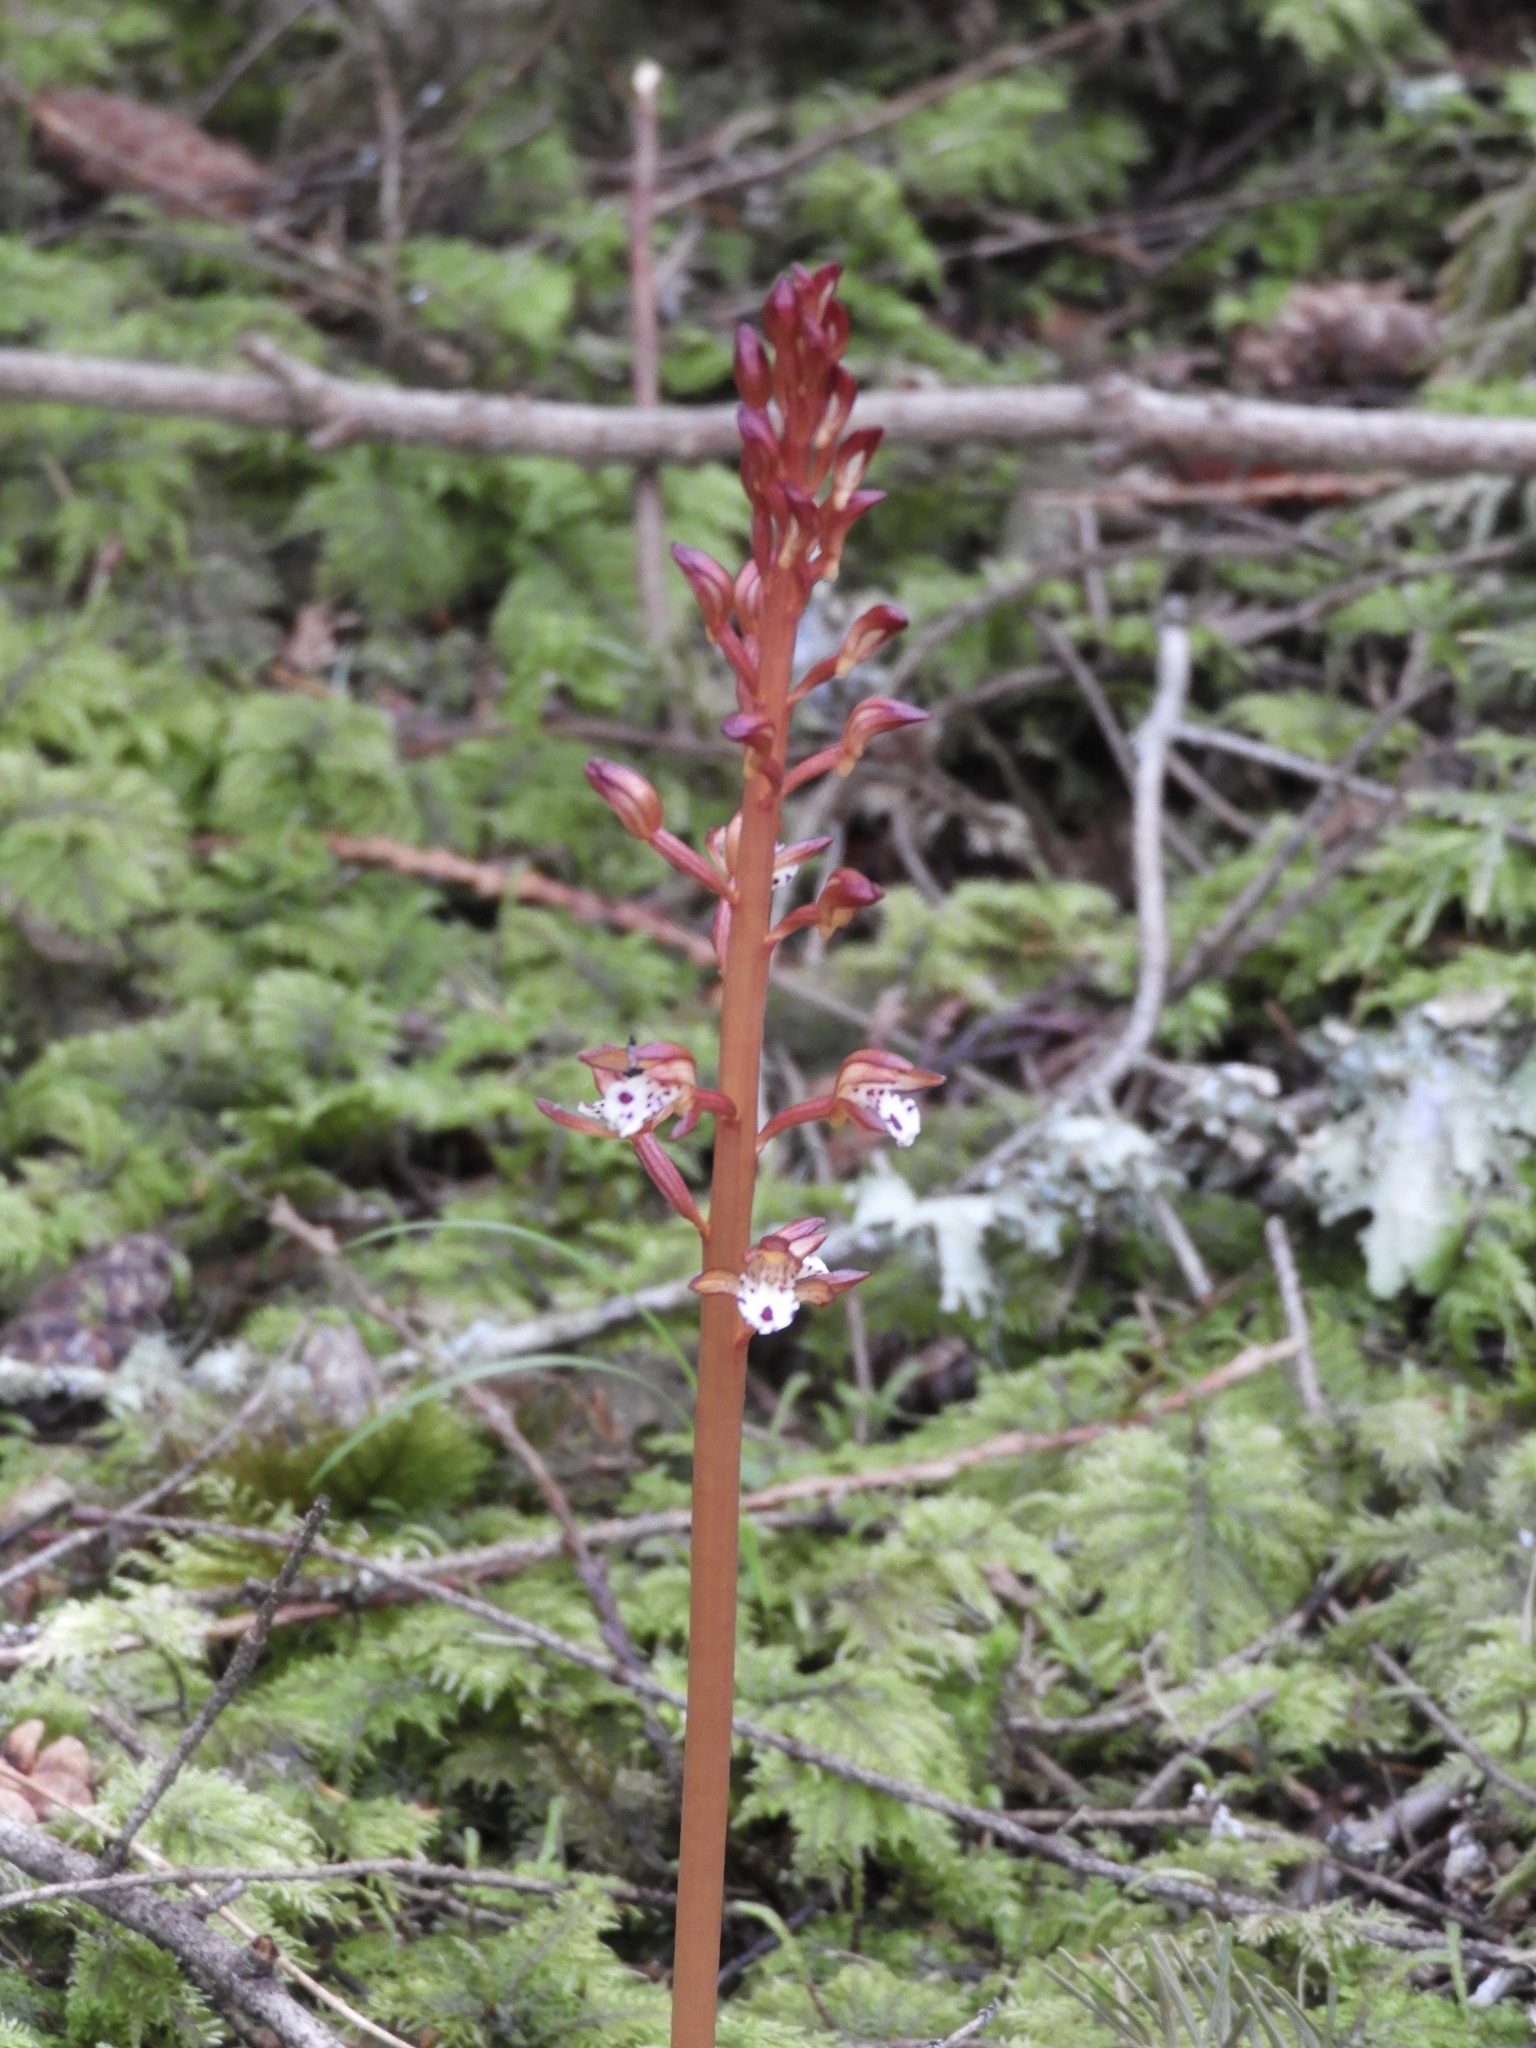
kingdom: Plantae
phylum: Tracheophyta
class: Liliopsida
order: Asparagales
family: Orchidaceae
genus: Corallorhiza
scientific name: Corallorhiza maculata
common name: Spotted coralroot
